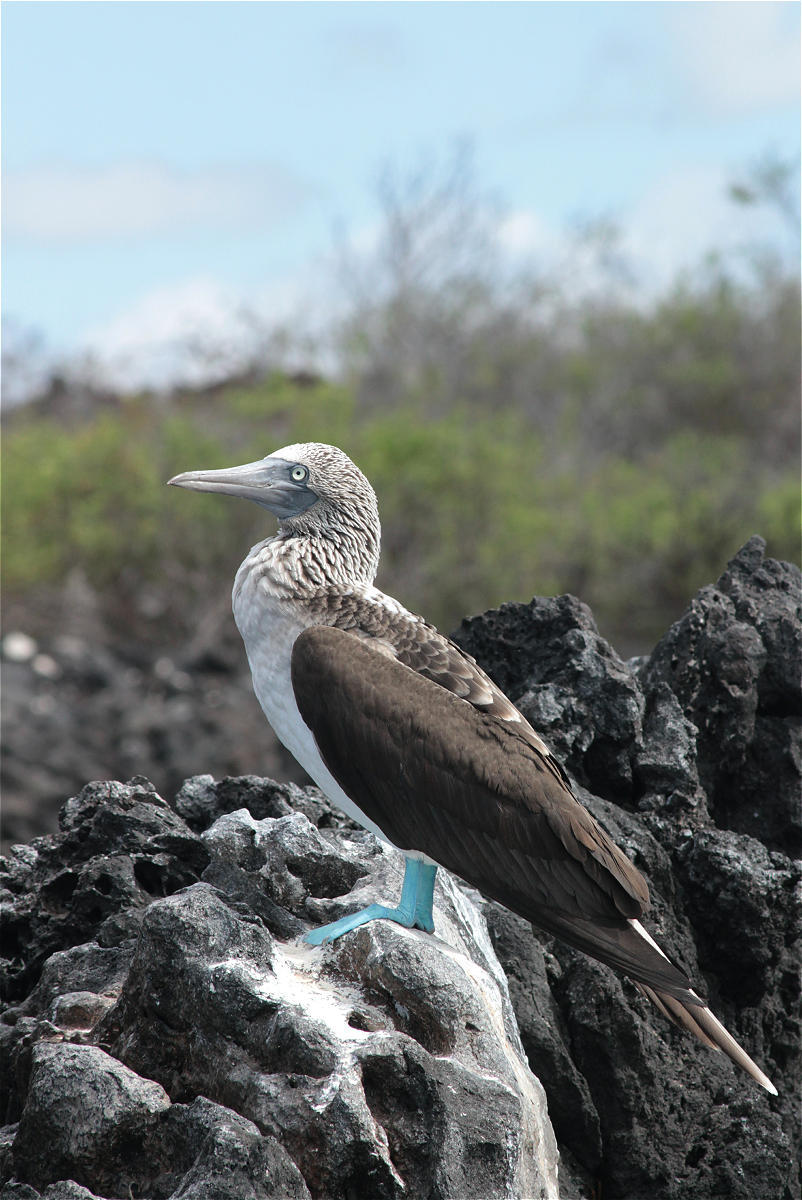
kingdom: Animalia
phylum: Chordata
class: Aves
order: Suliformes
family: Sulidae
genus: Sula
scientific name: Sula nebouxii
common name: Blue-footed booby
